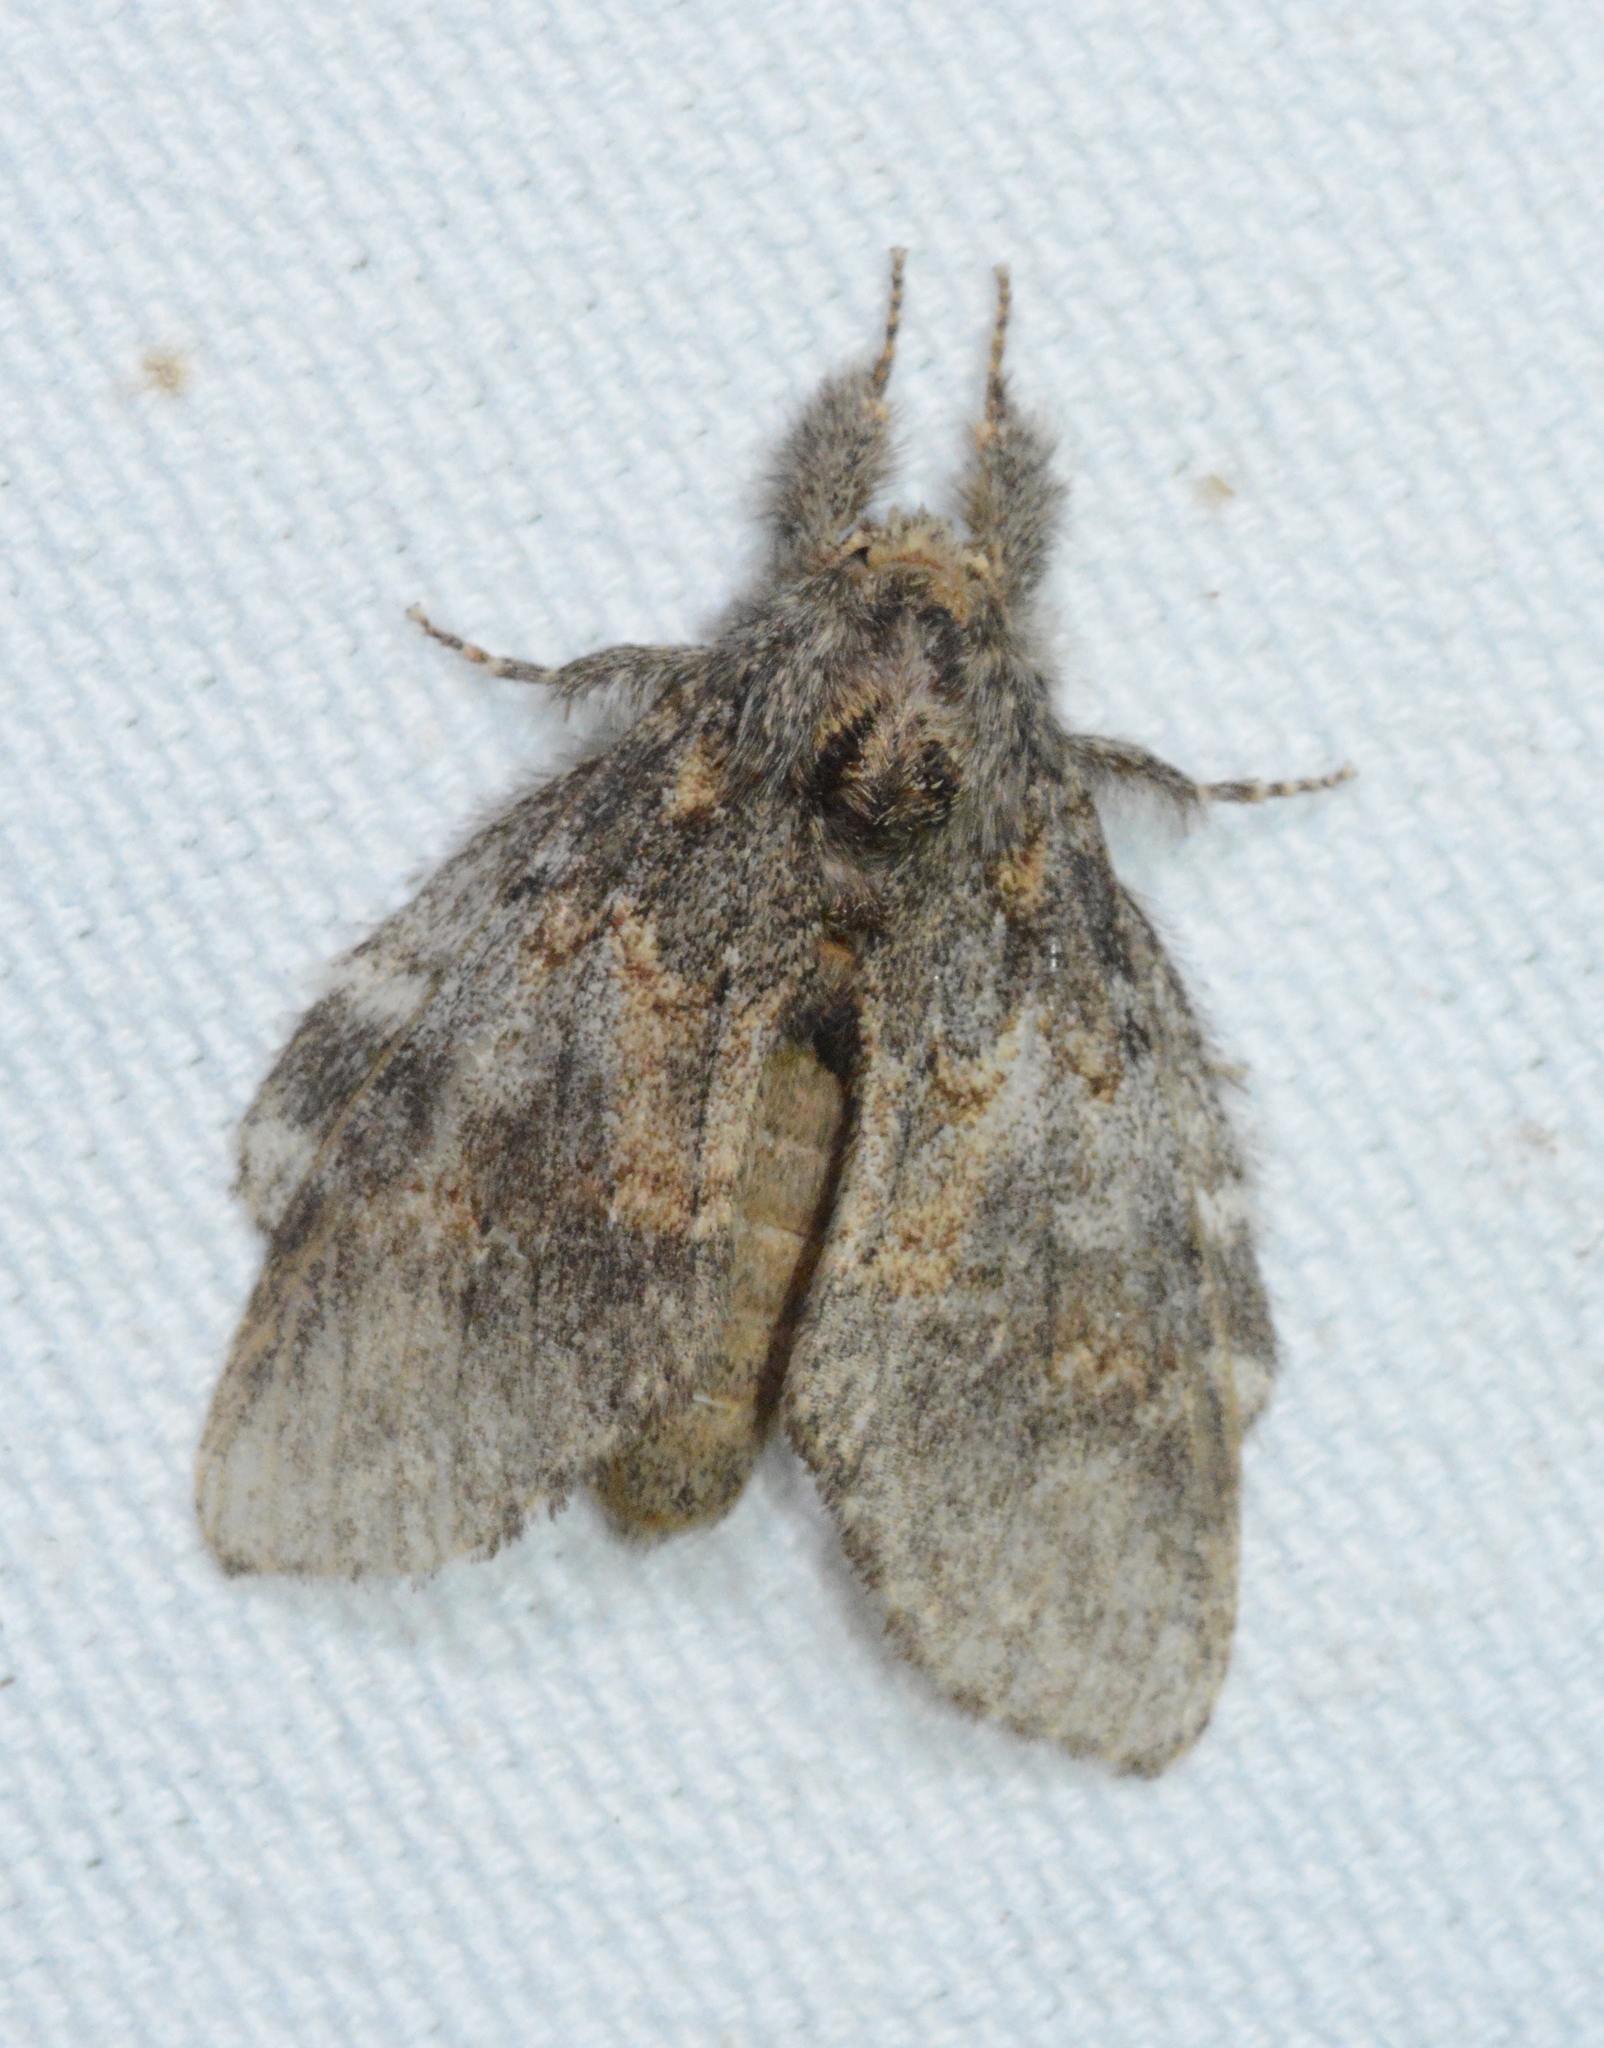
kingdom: Animalia
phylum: Arthropoda
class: Insecta
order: Lepidoptera
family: Notodontidae
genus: Peridea
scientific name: Peridea angulosa
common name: Angulose prominent
